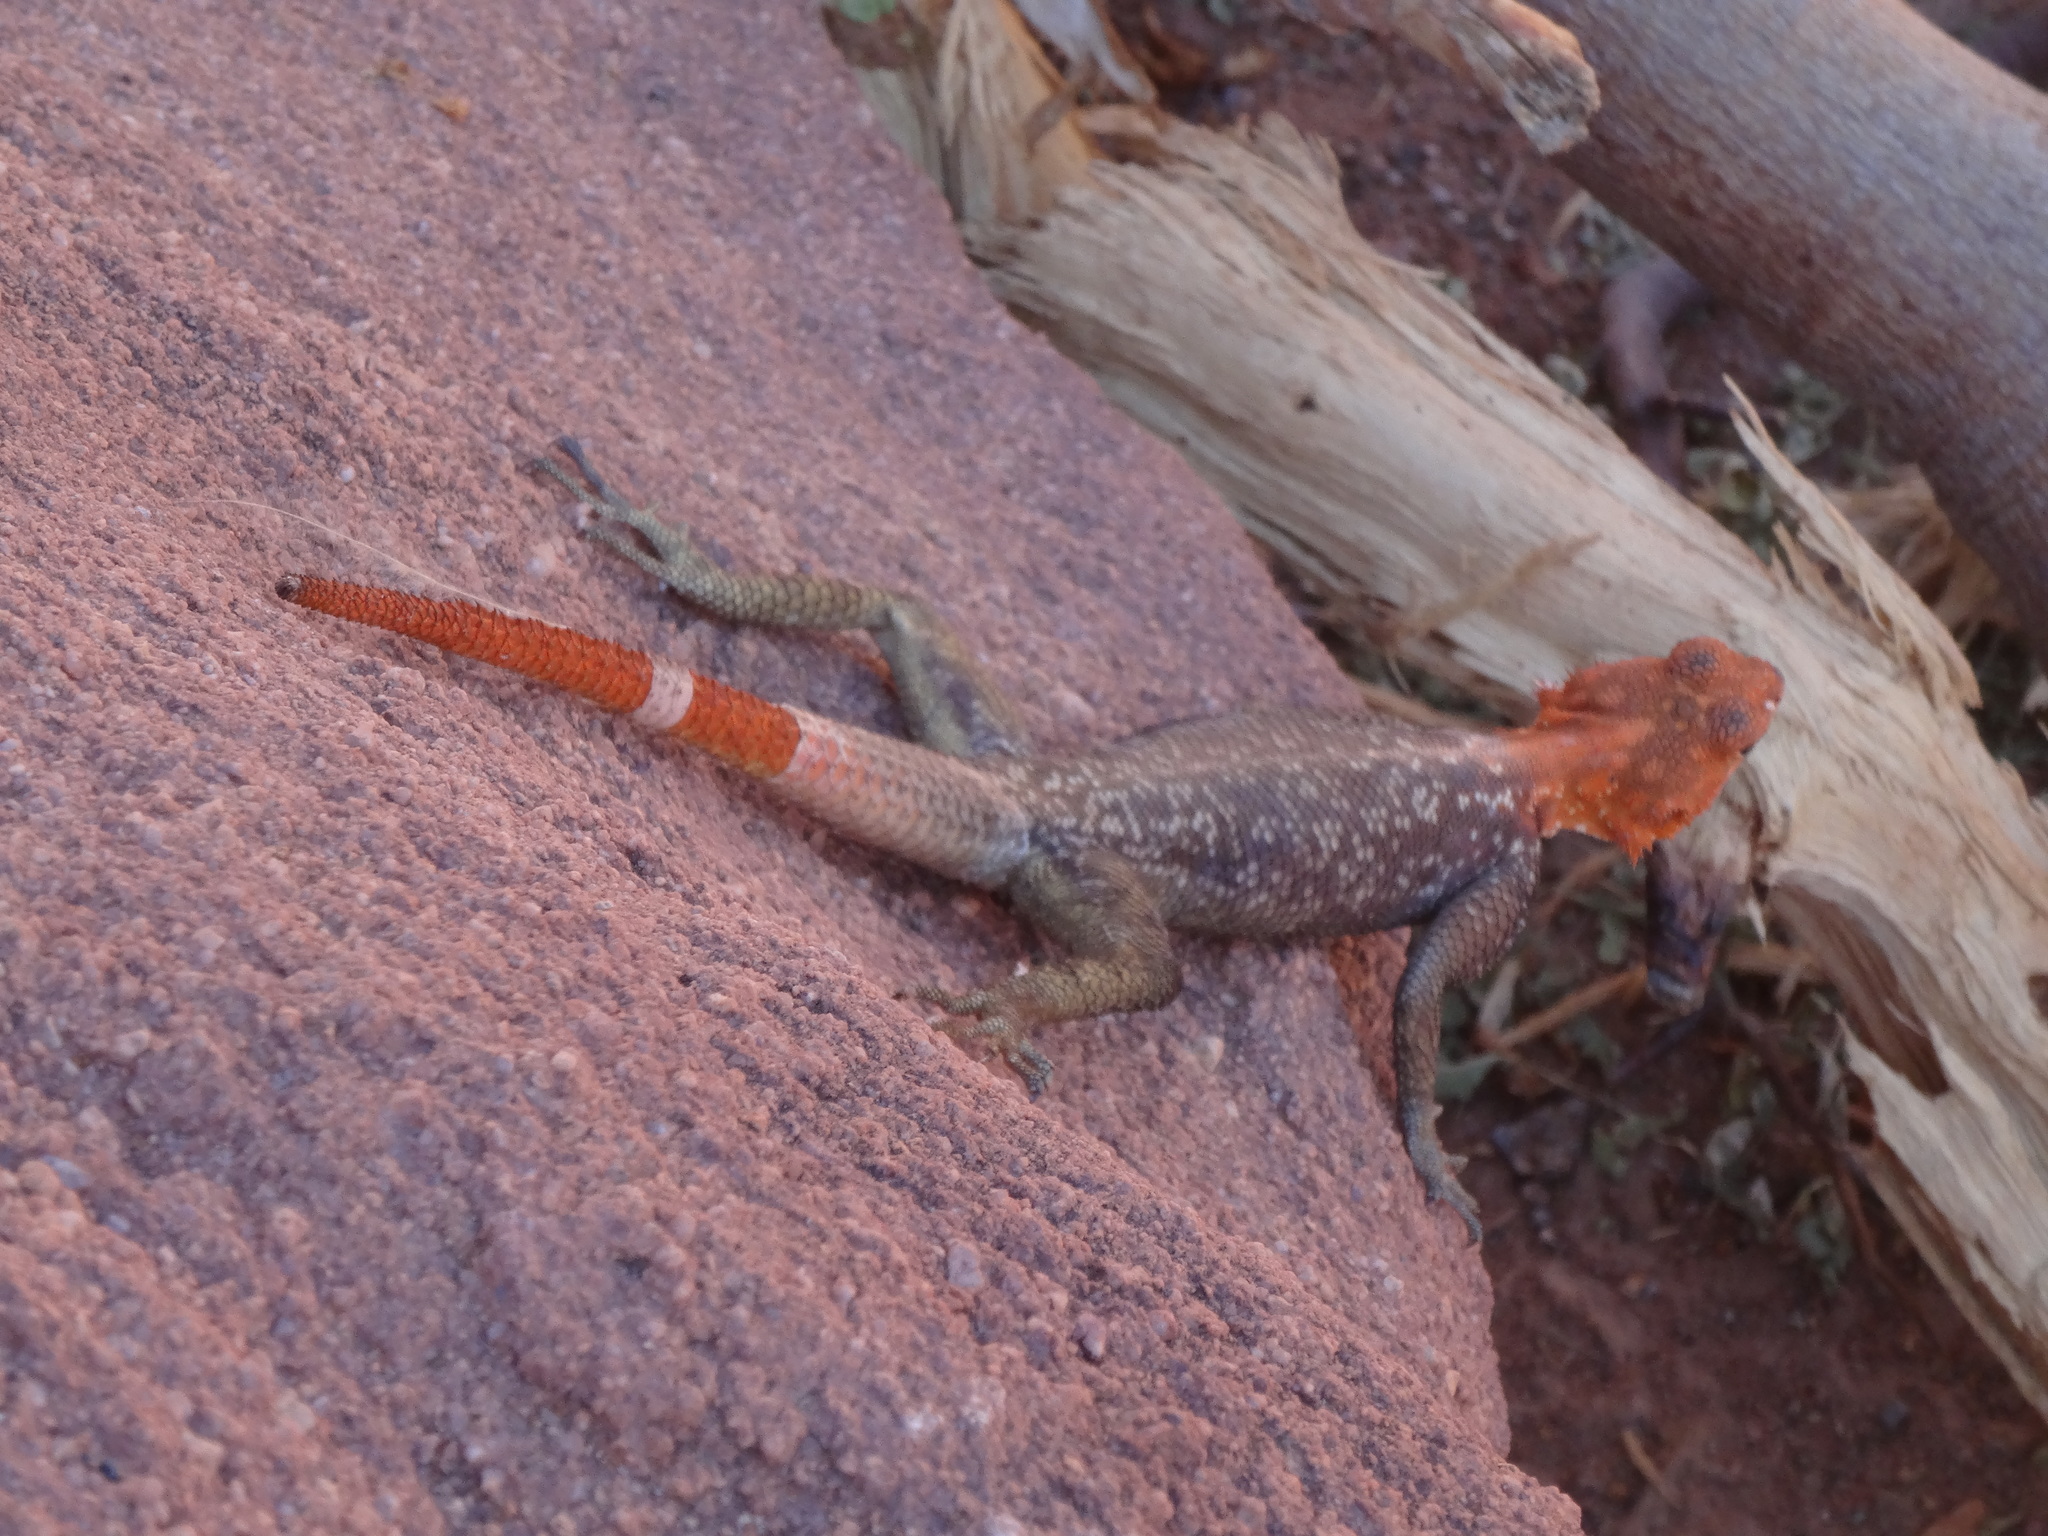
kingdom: Animalia
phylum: Chordata
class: Squamata
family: Agamidae
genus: Agama
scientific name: Agama planiceps
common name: Namib rock agama
